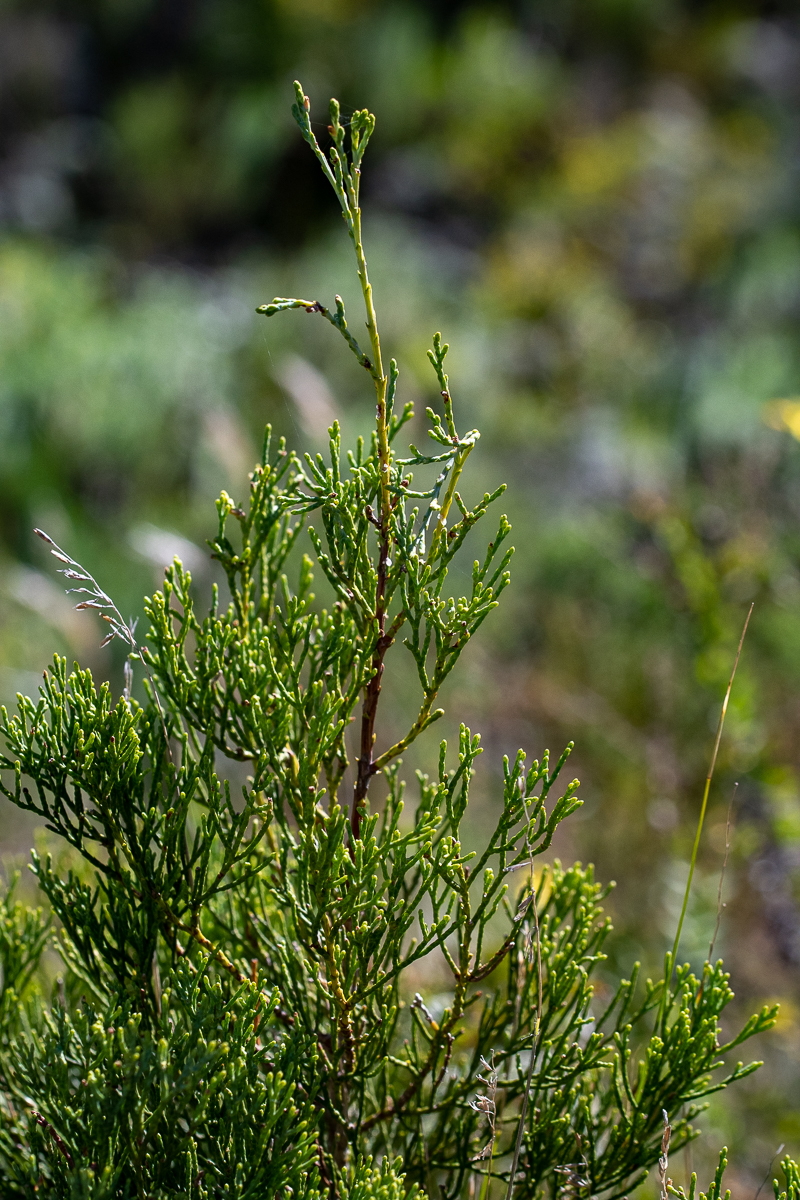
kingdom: Plantae
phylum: Tracheophyta
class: Pinopsida
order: Pinales
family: Cupressaceae
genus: Widdringtonia
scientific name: Widdringtonia nodiflora
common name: Cape cypress
